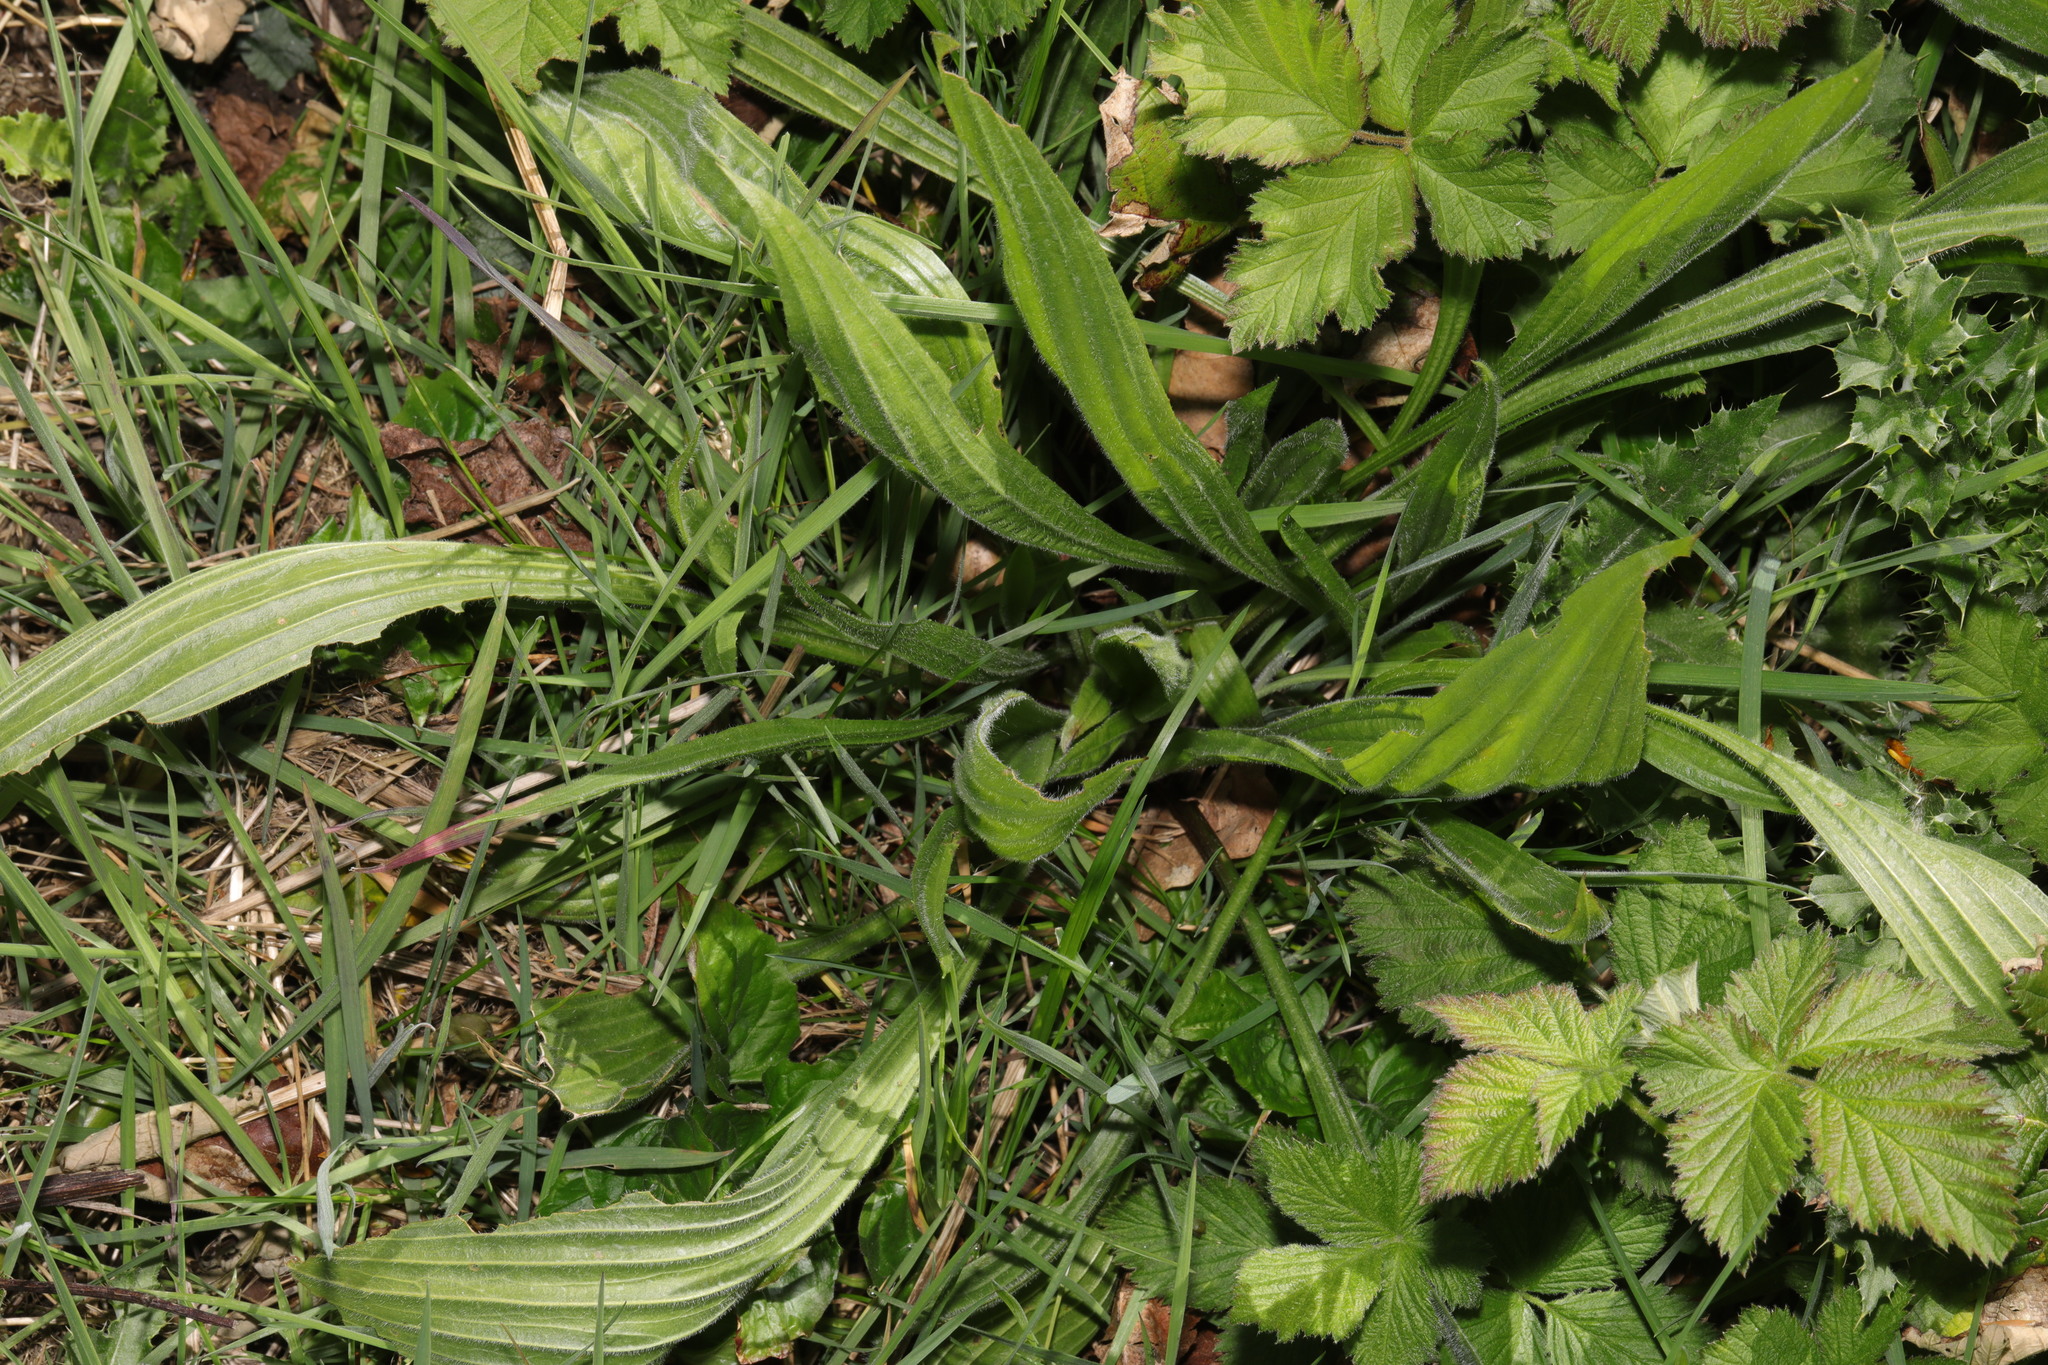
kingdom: Plantae
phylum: Tracheophyta
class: Magnoliopsida
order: Lamiales
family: Plantaginaceae
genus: Plantago
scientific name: Plantago lanceolata
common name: Ribwort plantain
